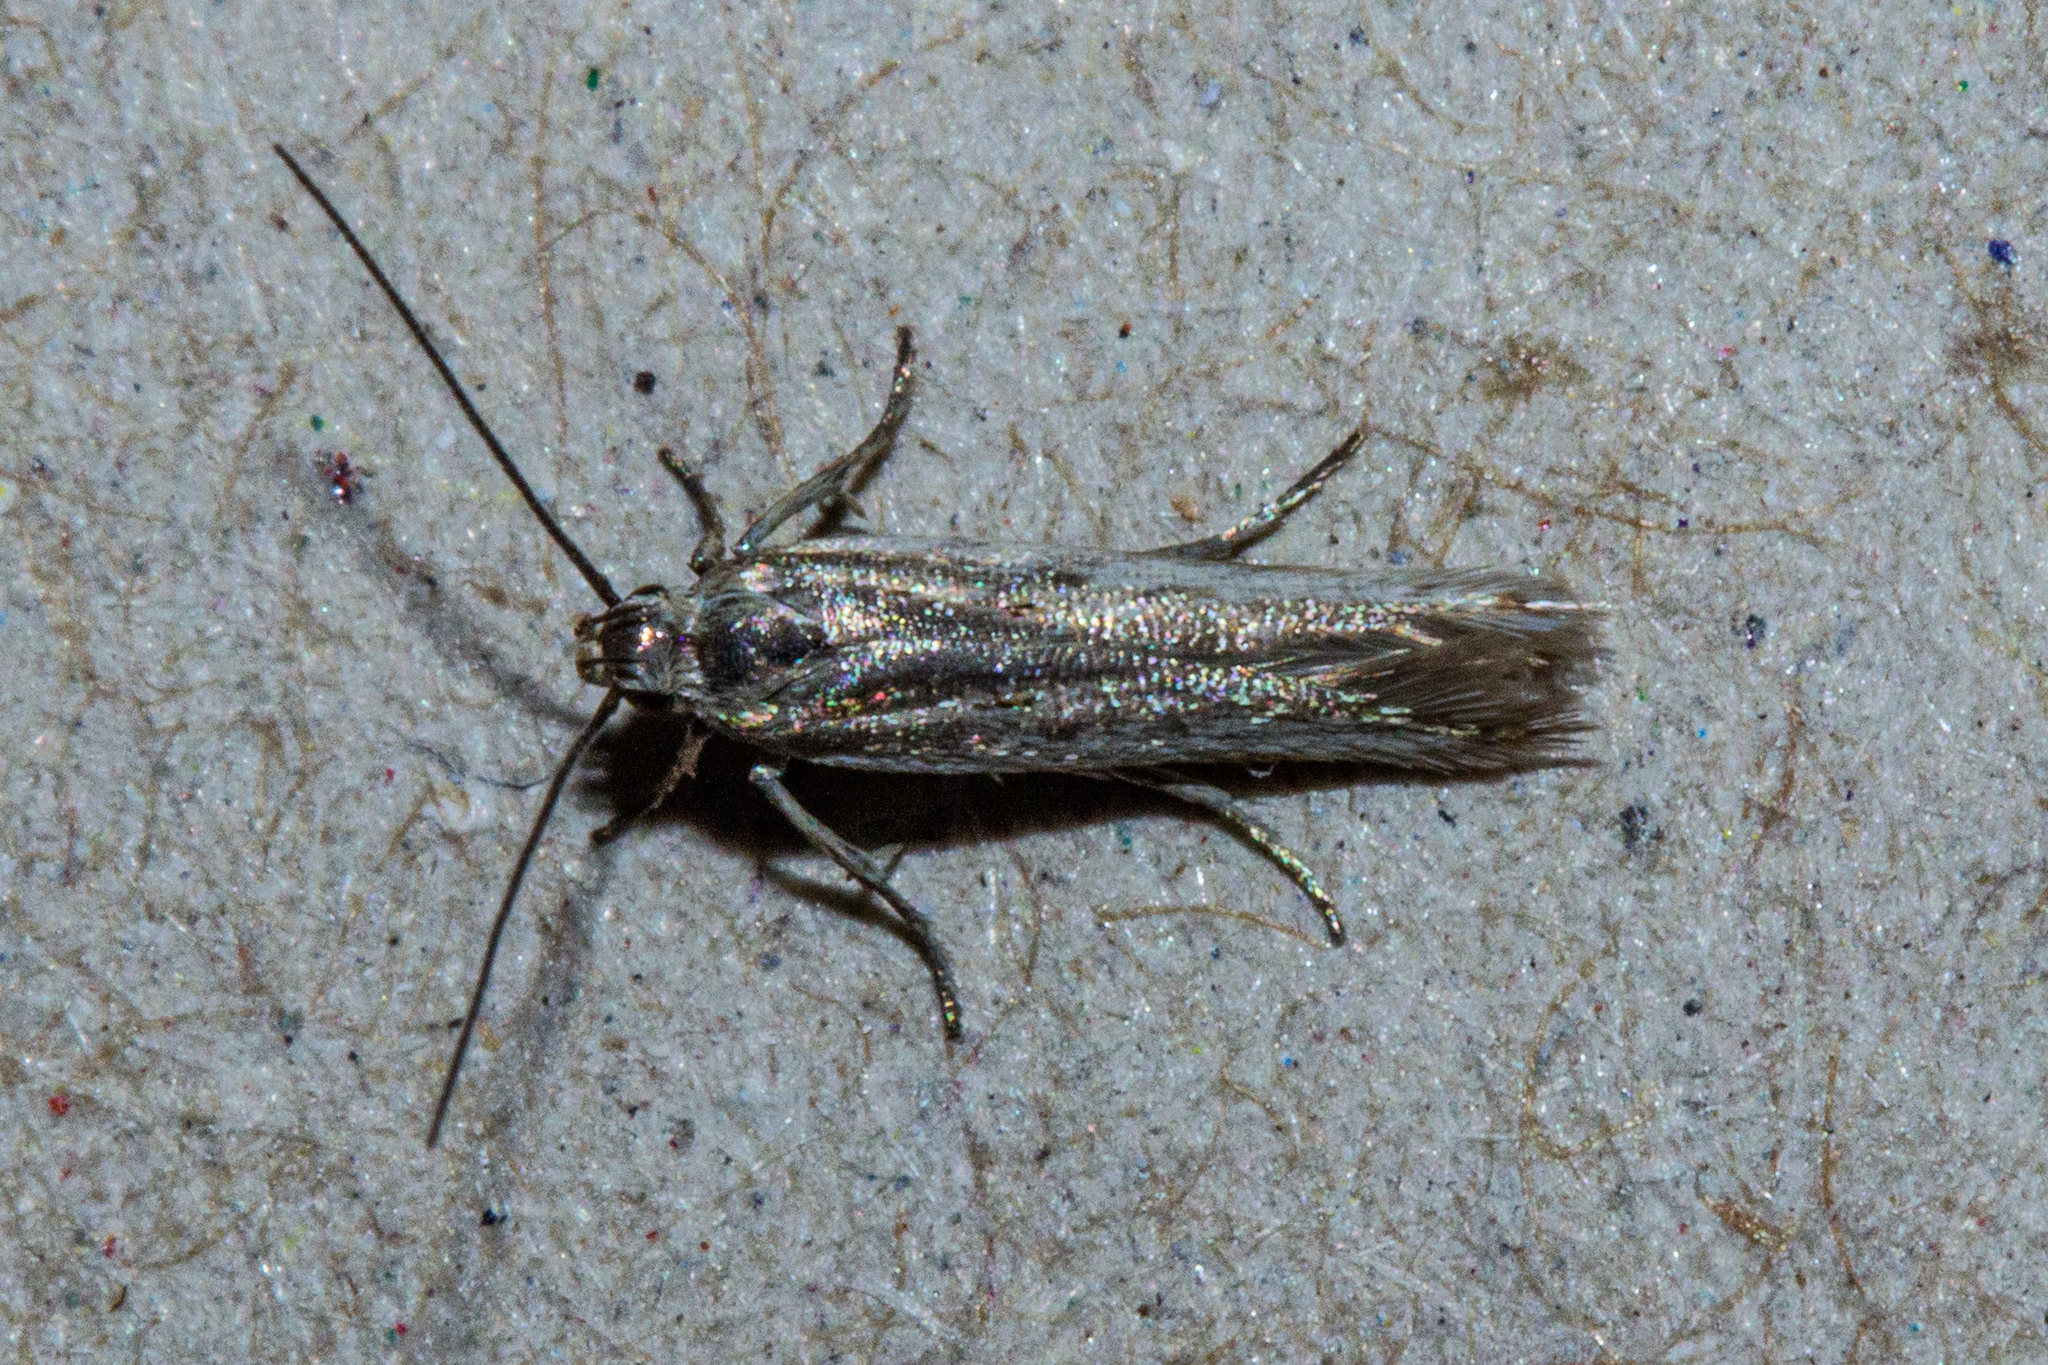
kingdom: Animalia
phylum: Arthropoda
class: Insecta
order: Lepidoptera
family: Gelechiidae
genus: Kiwaia
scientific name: Kiwaia plemochoa
